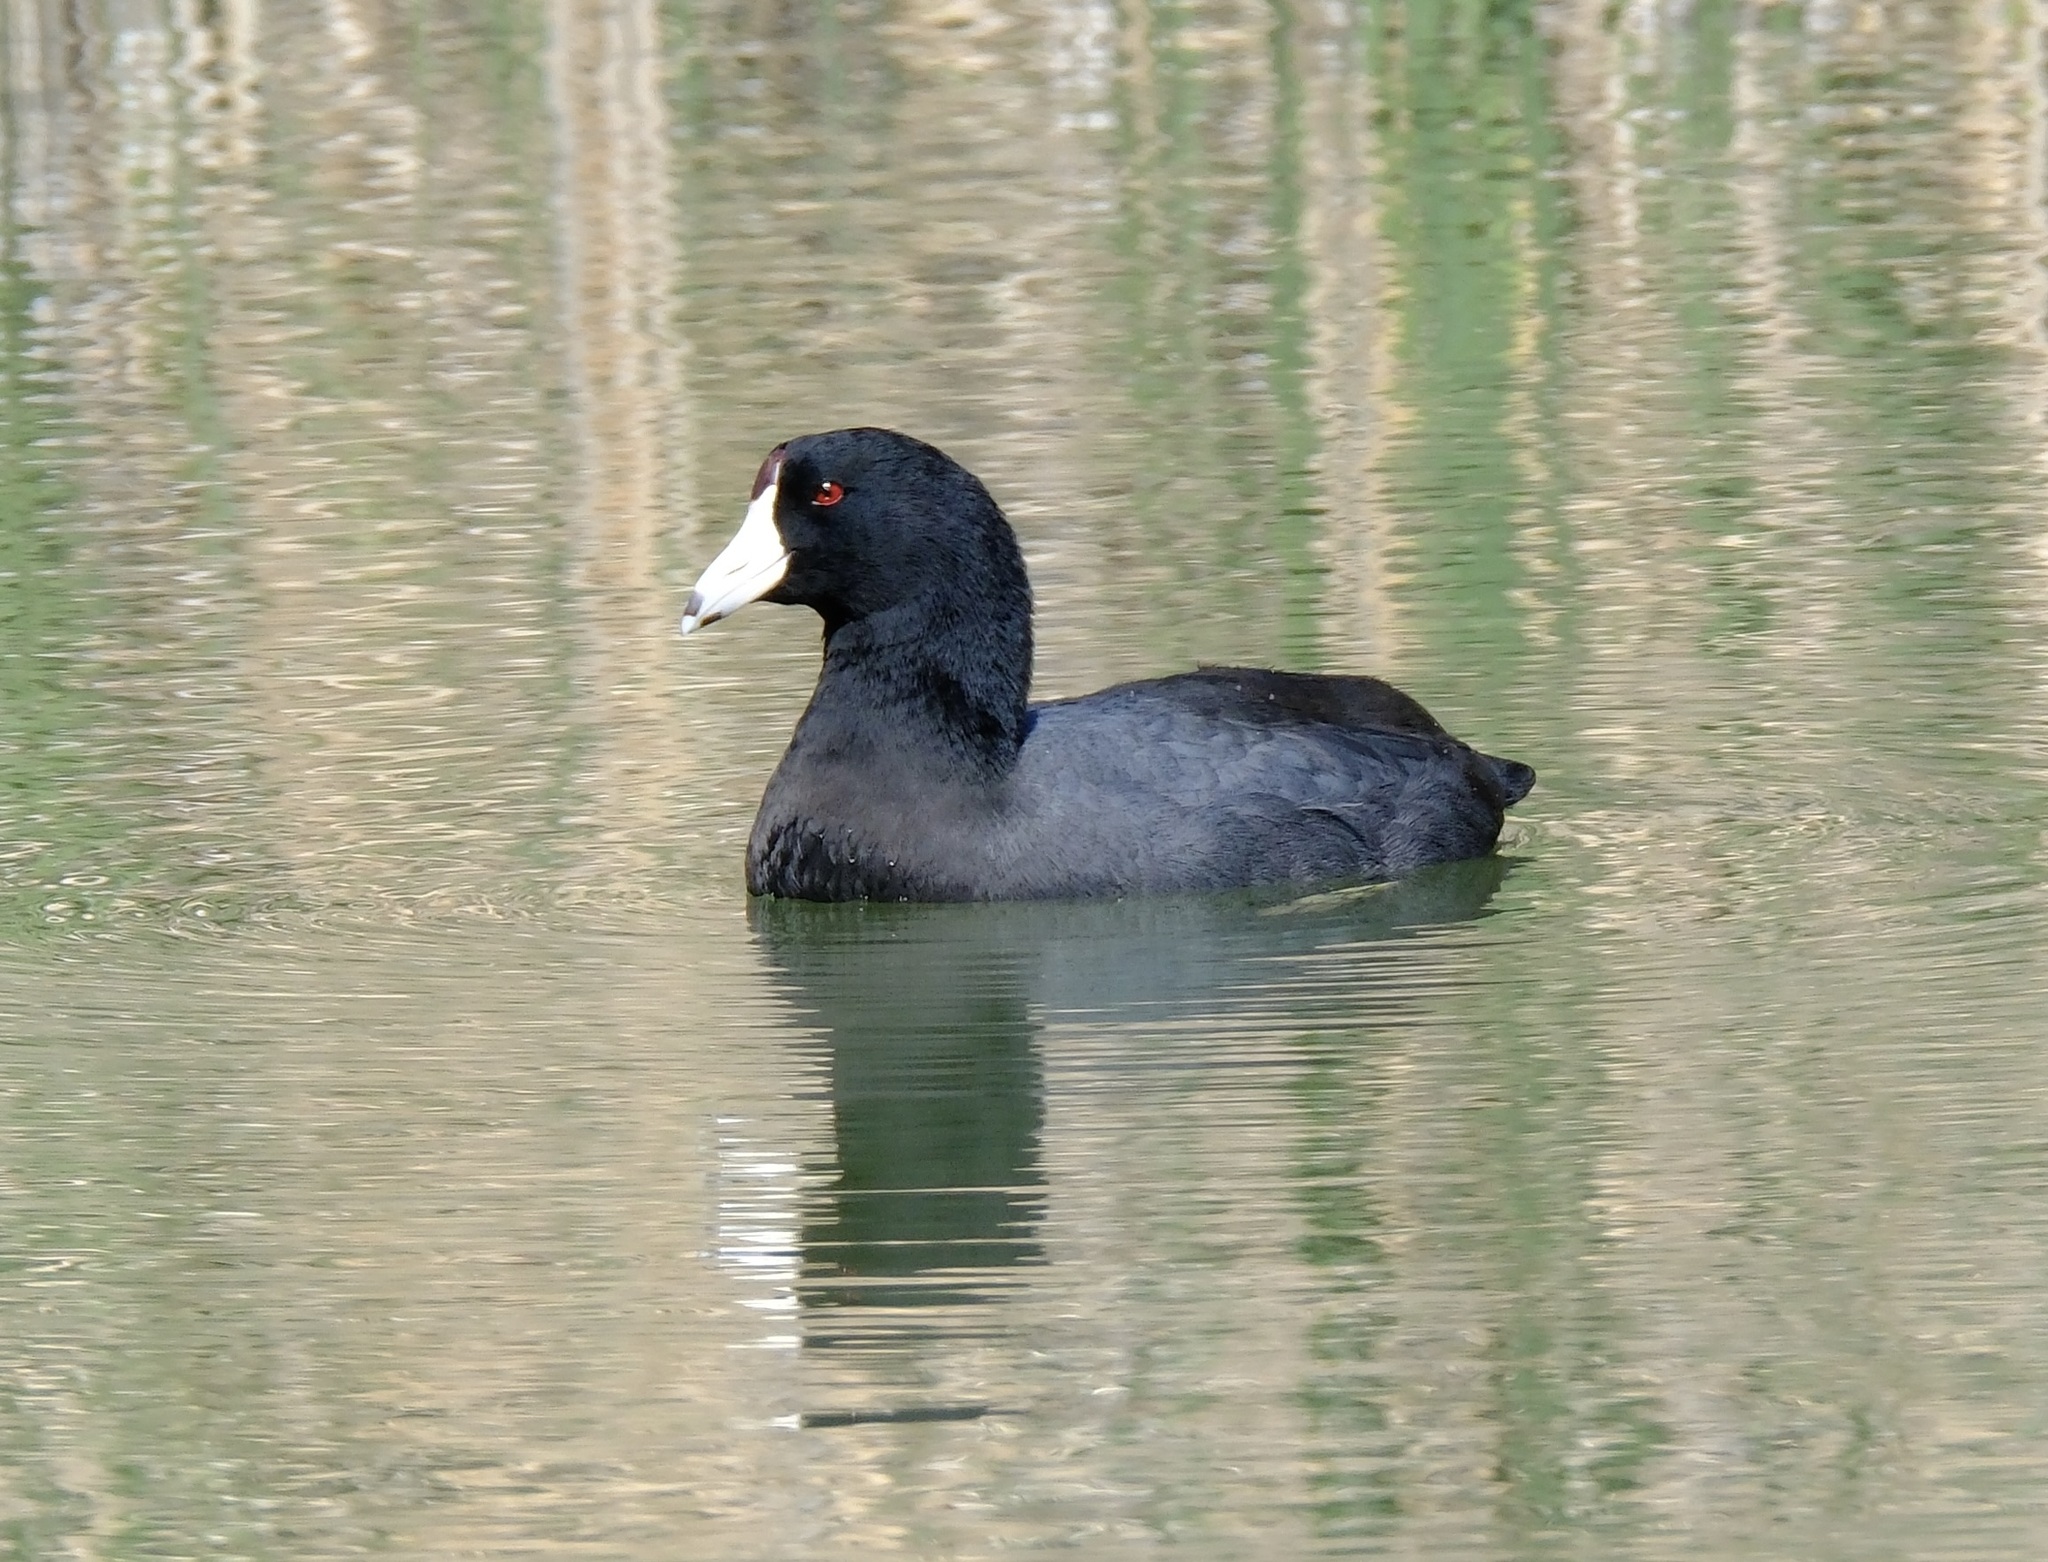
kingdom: Animalia
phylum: Chordata
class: Aves
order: Gruiformes
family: Rallidae
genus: Fulica
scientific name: Fulica americana
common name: American coot
